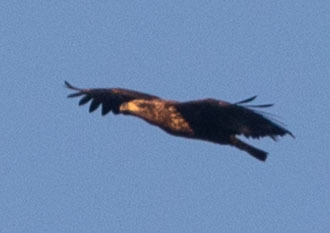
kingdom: Animalia
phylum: Chordata
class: Aves
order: Accipitriformes
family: Accipitridae
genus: Haliaeetus
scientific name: Haliaeetus leucocephalus
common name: Bald eagle
